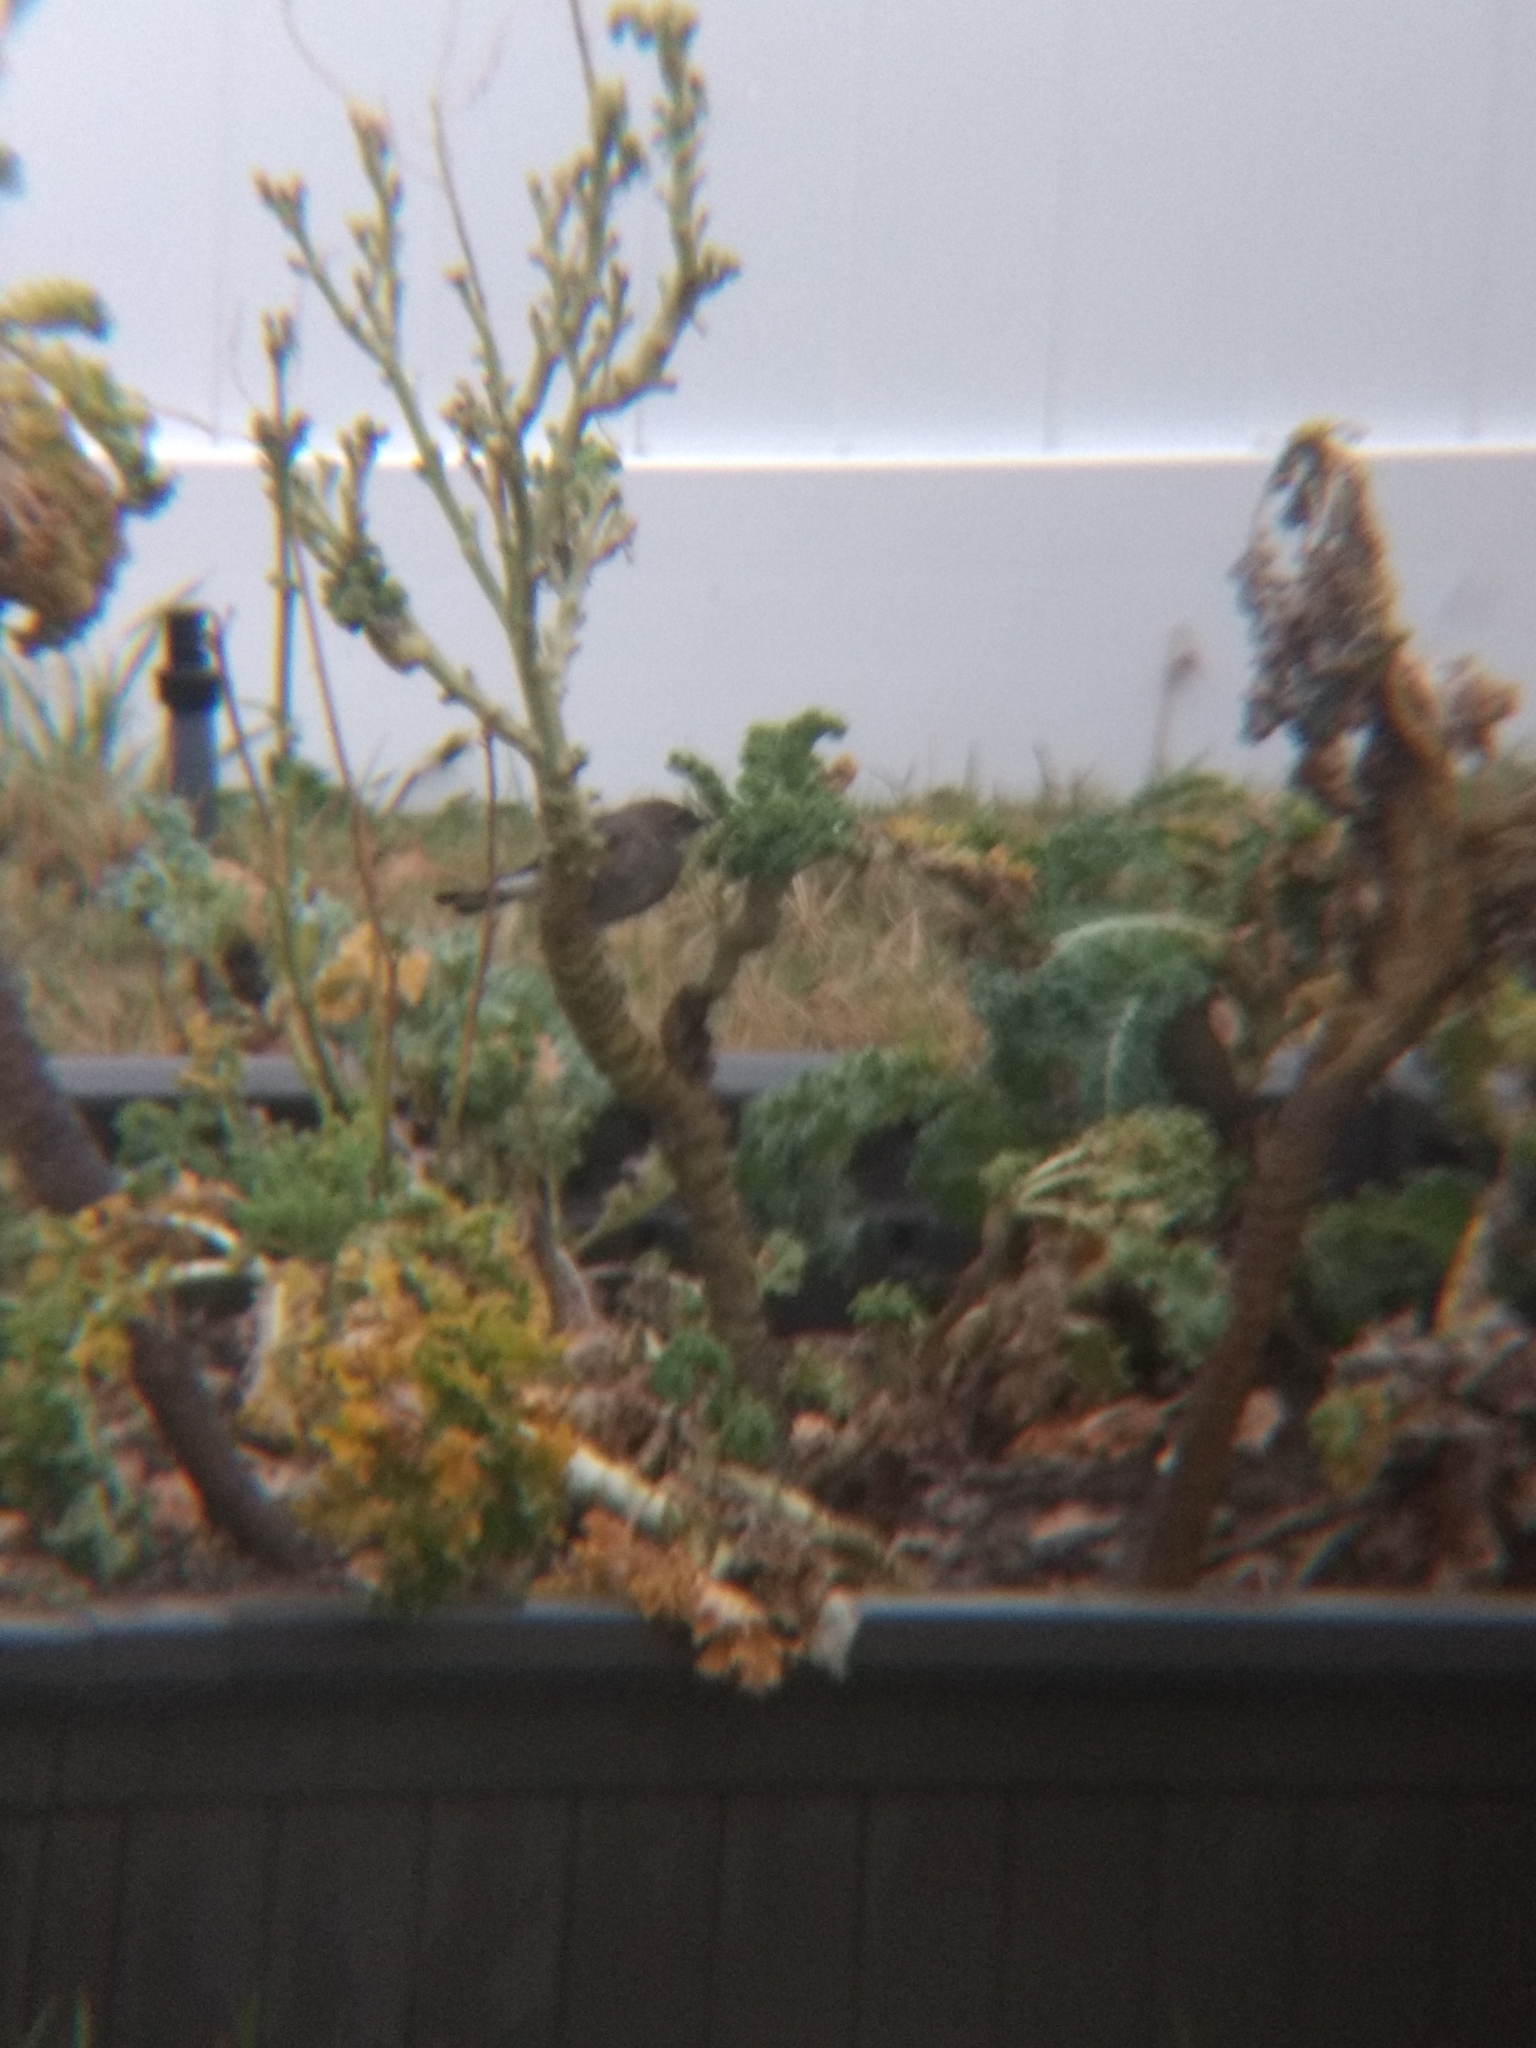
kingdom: Animalia
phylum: Chordata
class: Aves
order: Passeriformes
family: Parulidae
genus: Setophaga
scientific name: Setophaga coronata
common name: Myrtle warbler
